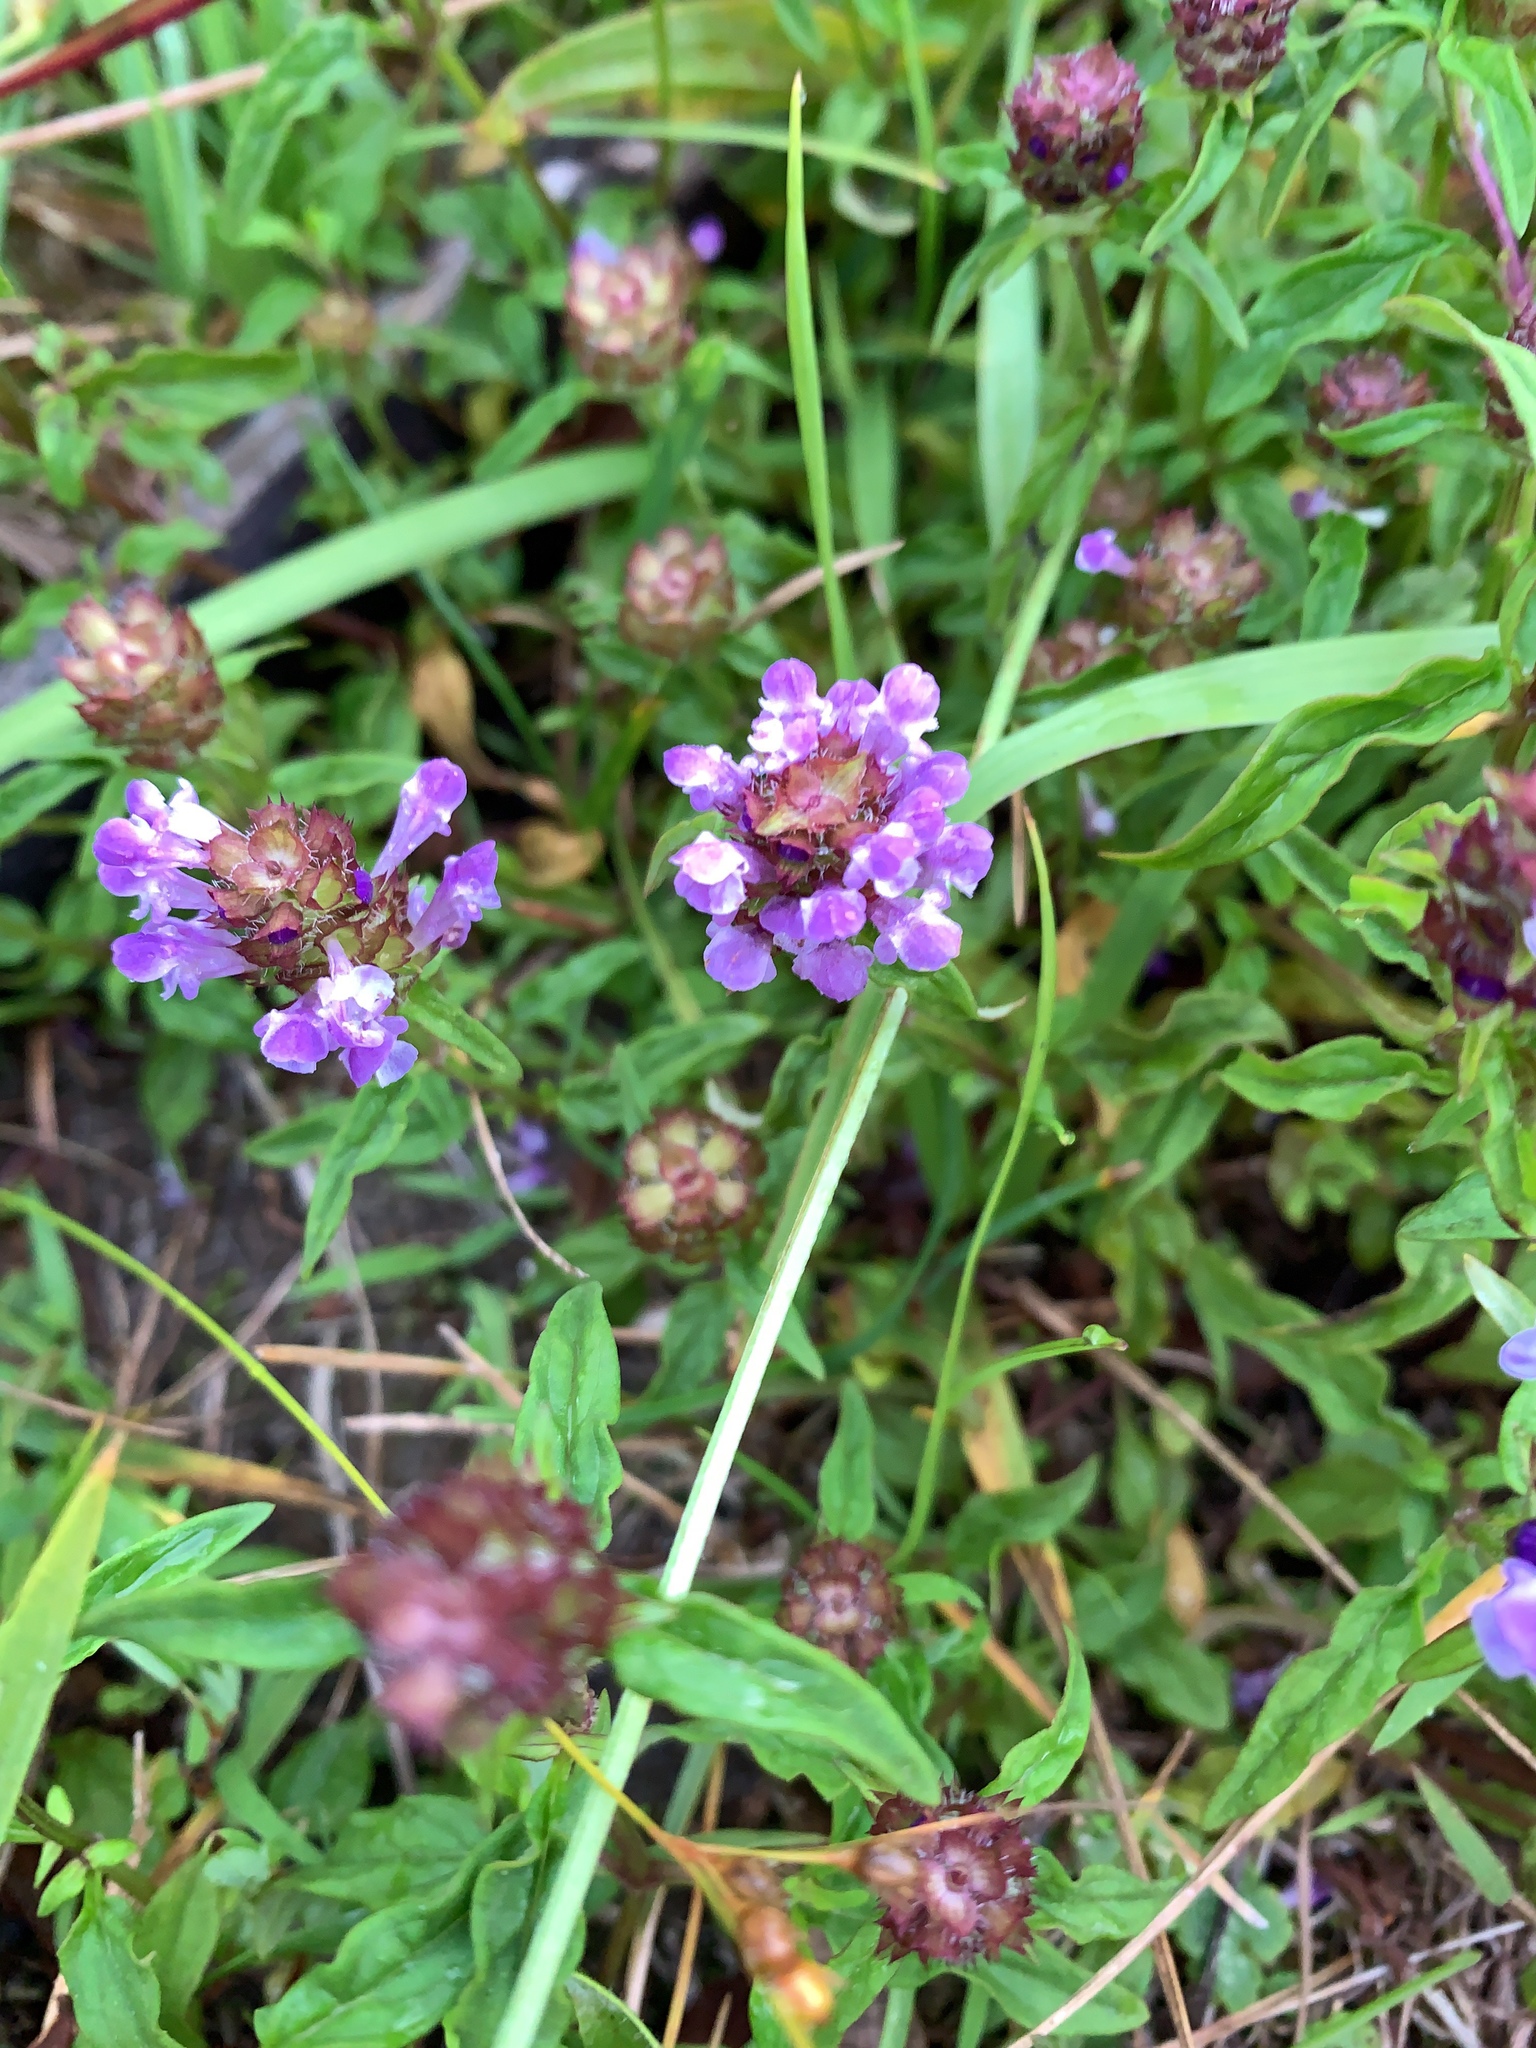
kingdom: Plantae
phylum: Tracheophyta
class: Magnoliopsida
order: Lamiales
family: Lamiaceae
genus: Prunella
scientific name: Prunella vulgaris
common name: Heal-all
